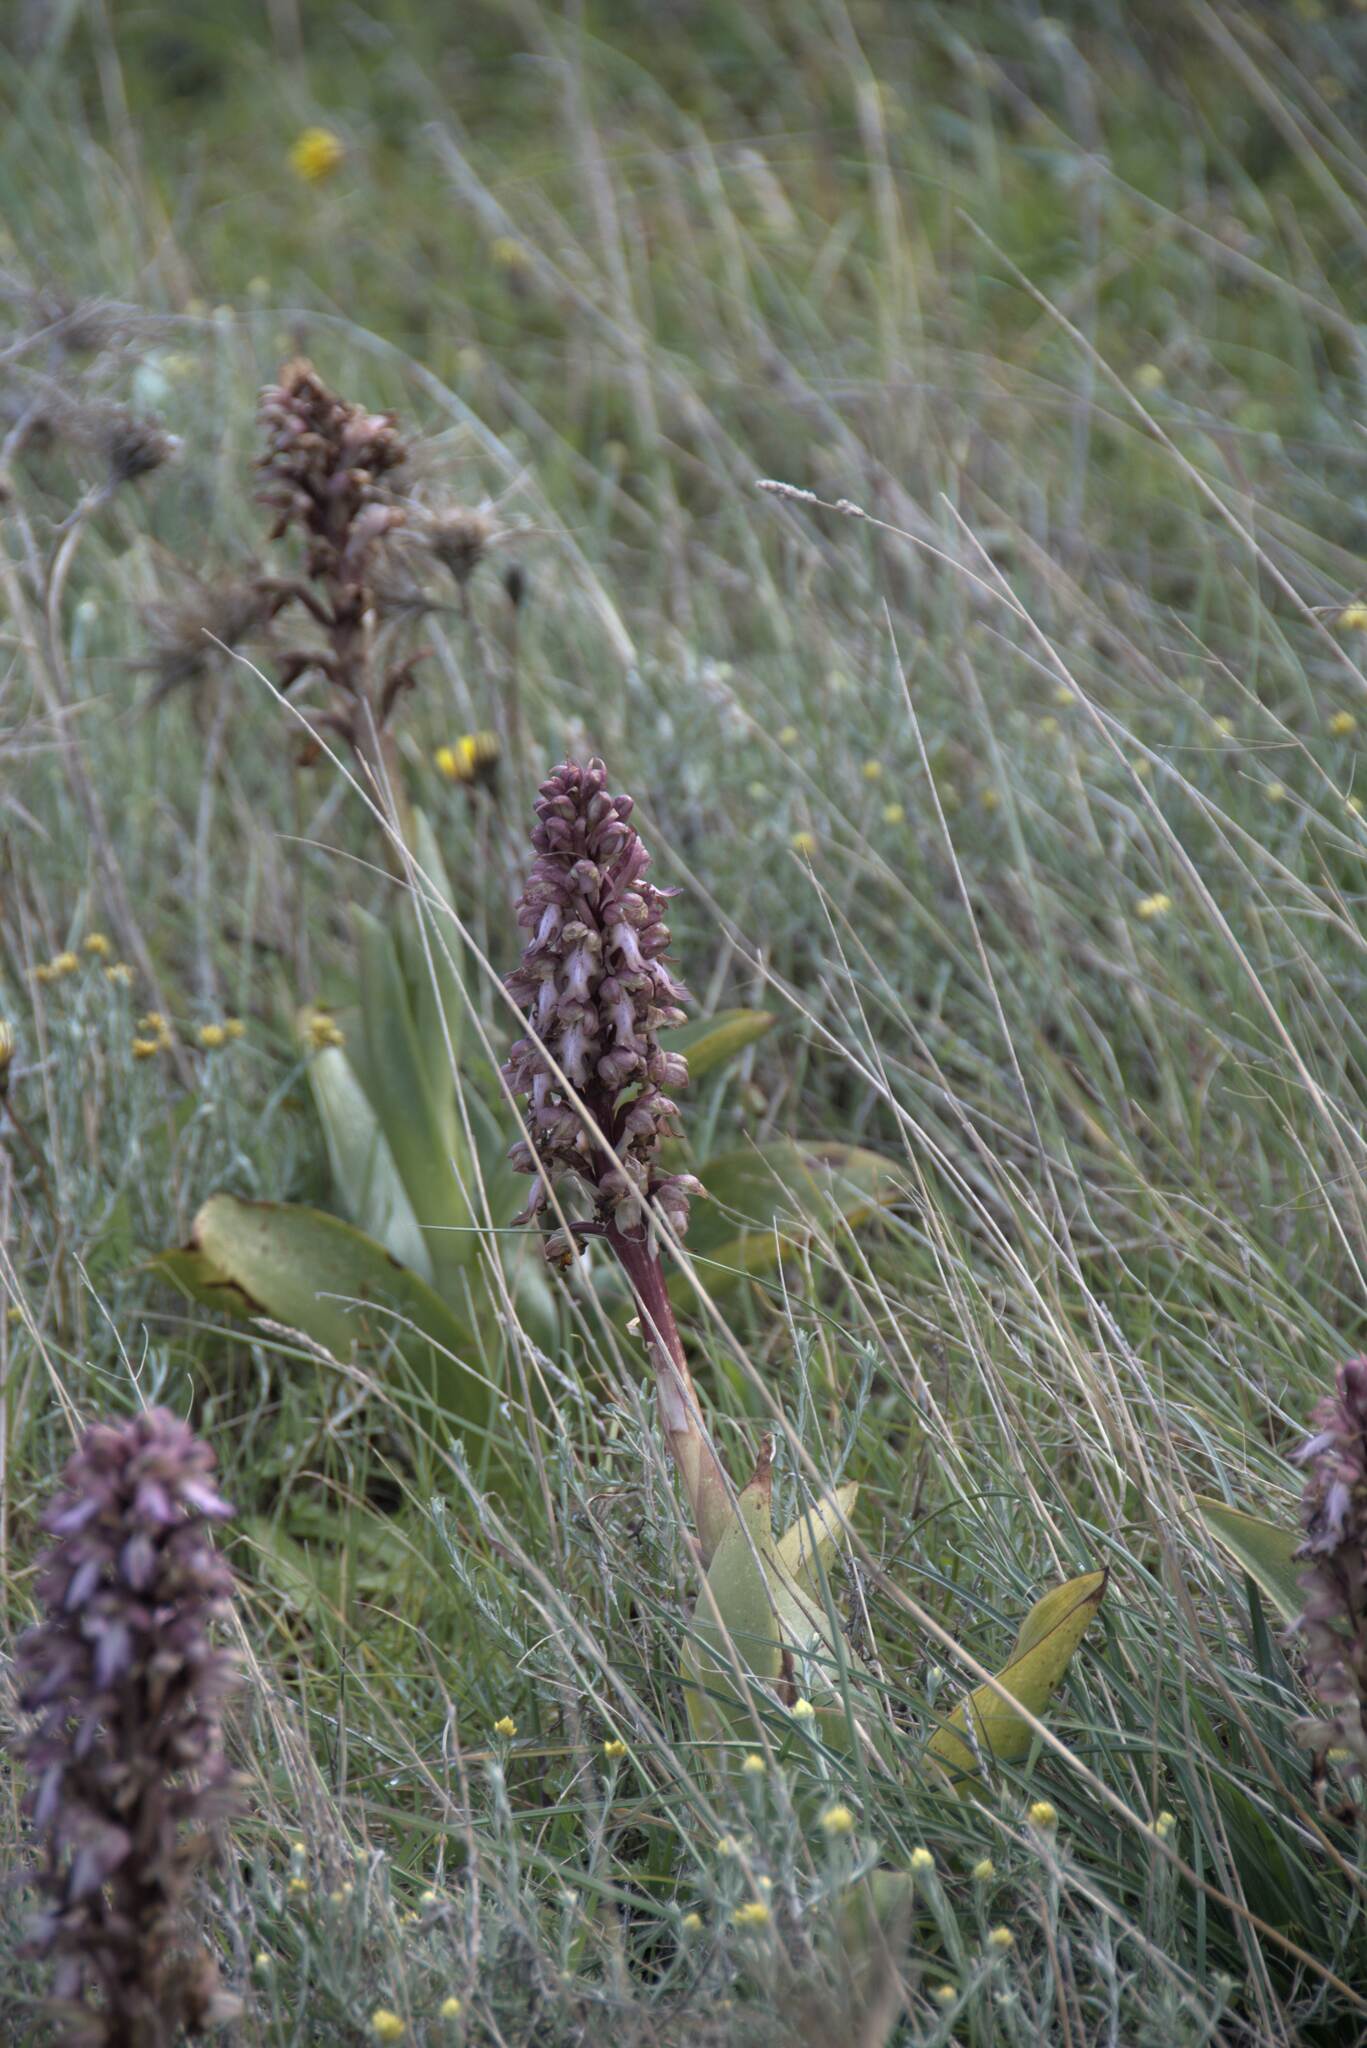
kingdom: Plantae
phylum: Tracheophyta
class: Liliopsida
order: Asparagales
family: Orchidaceae
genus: Himantoglossum
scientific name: Himantoglossum robertianum
